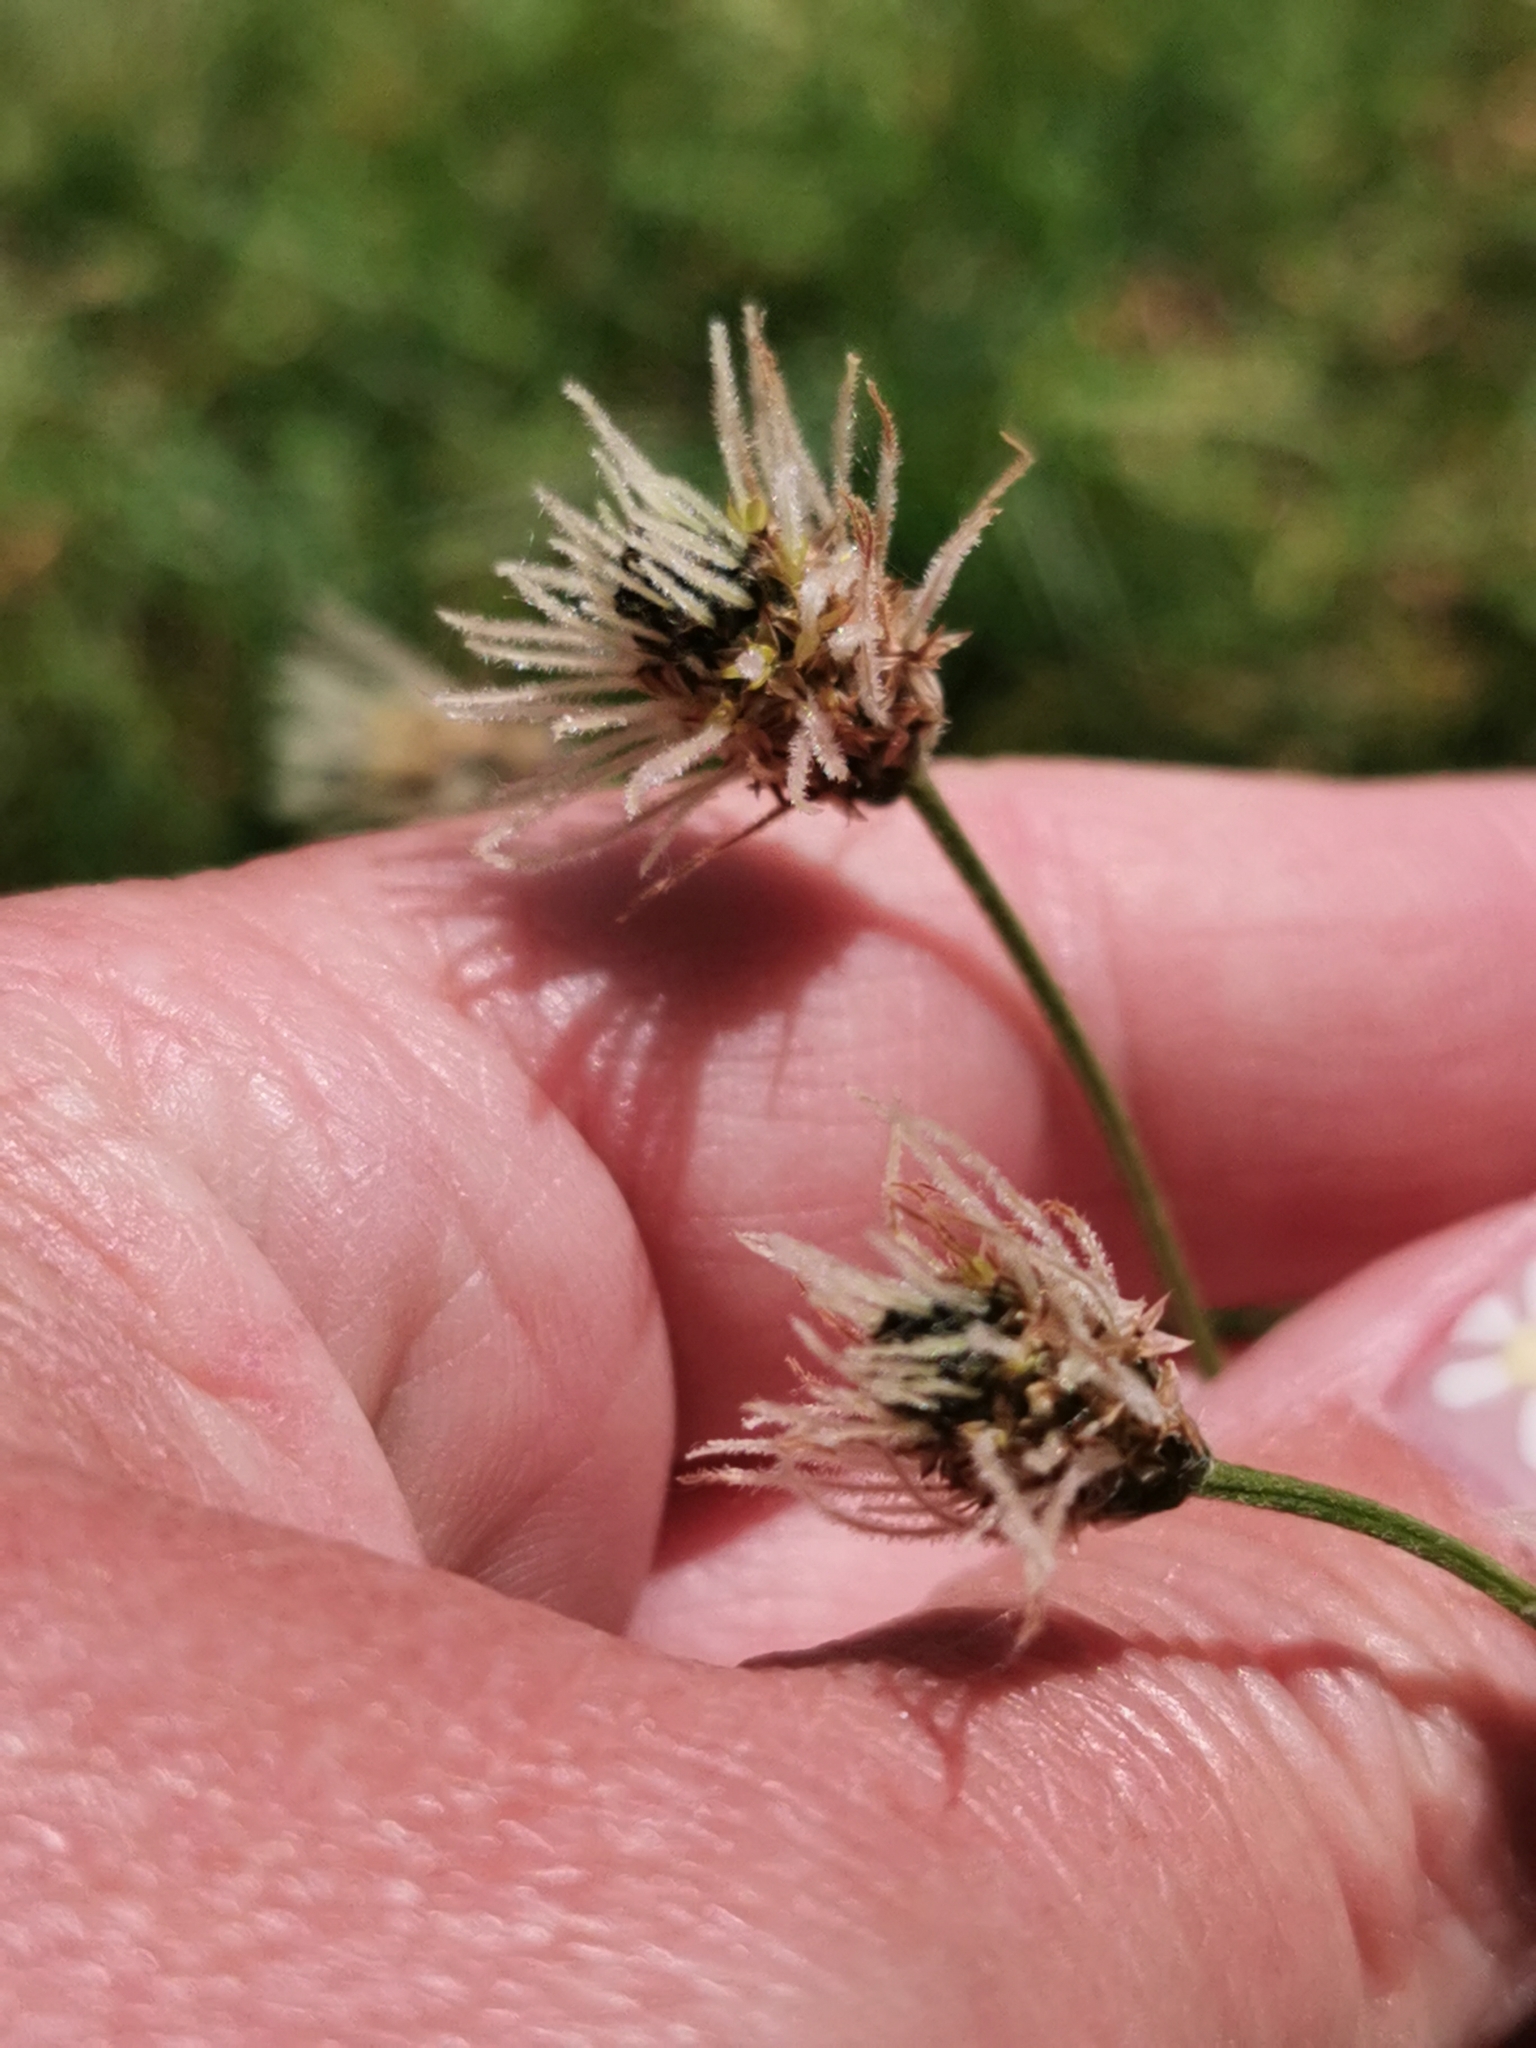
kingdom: Plantae
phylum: Tracheophyta
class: Magnoliopsida
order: Lamiales
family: Plantaginaceae
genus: Plantago
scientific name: Plantago lanceolata
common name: Ribwort plantain
